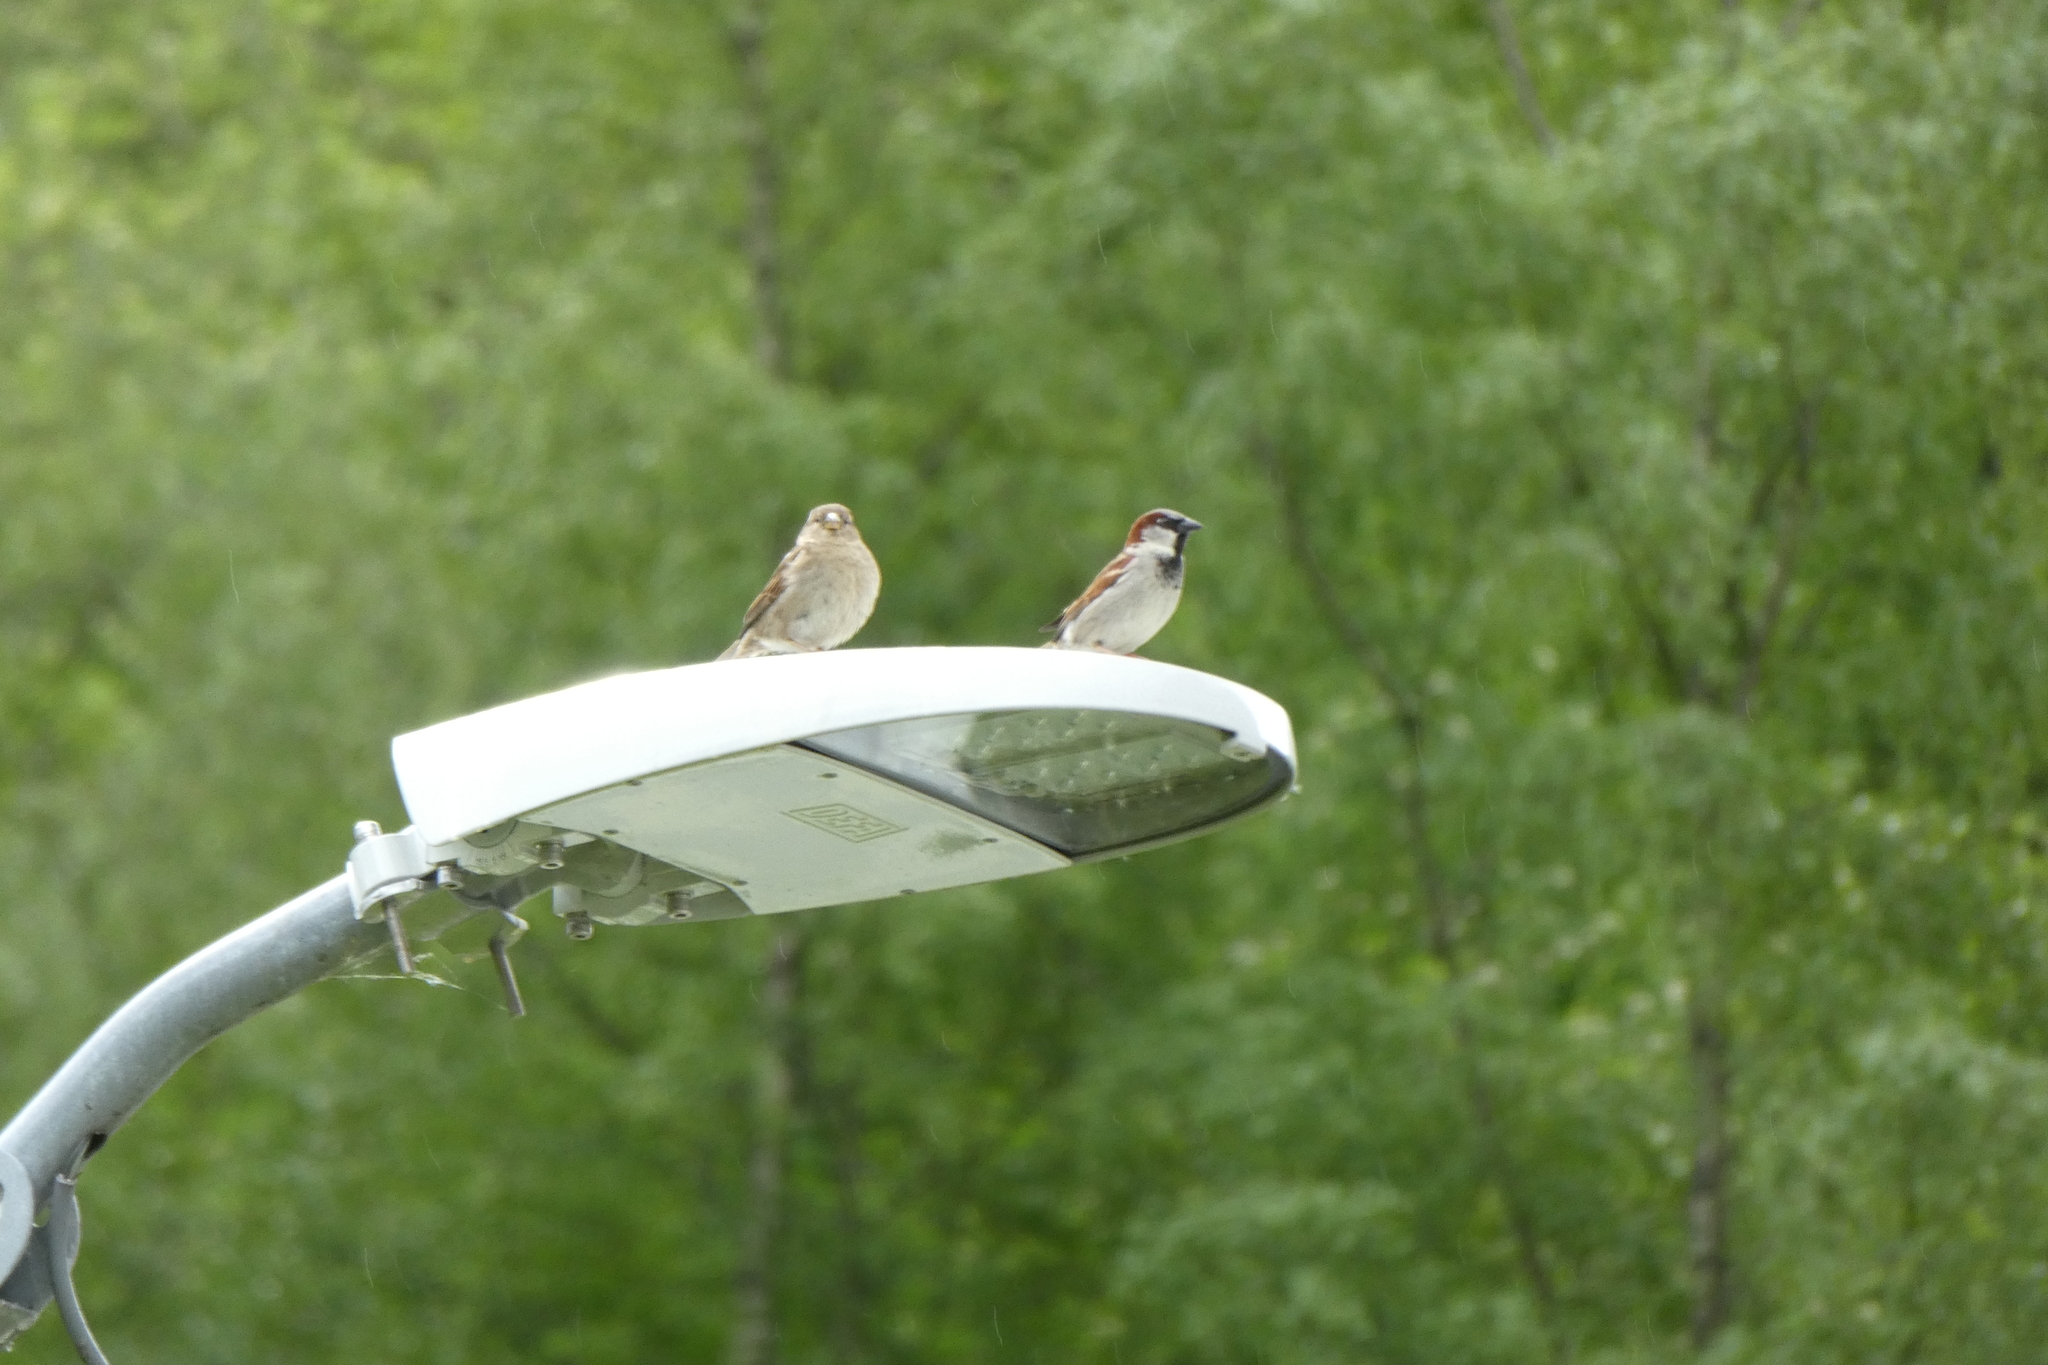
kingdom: Animalia
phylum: Chordata
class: Aves
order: Passeriformes
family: Passeridae
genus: Passer
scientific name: Passer domesticus
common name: House sparrow
